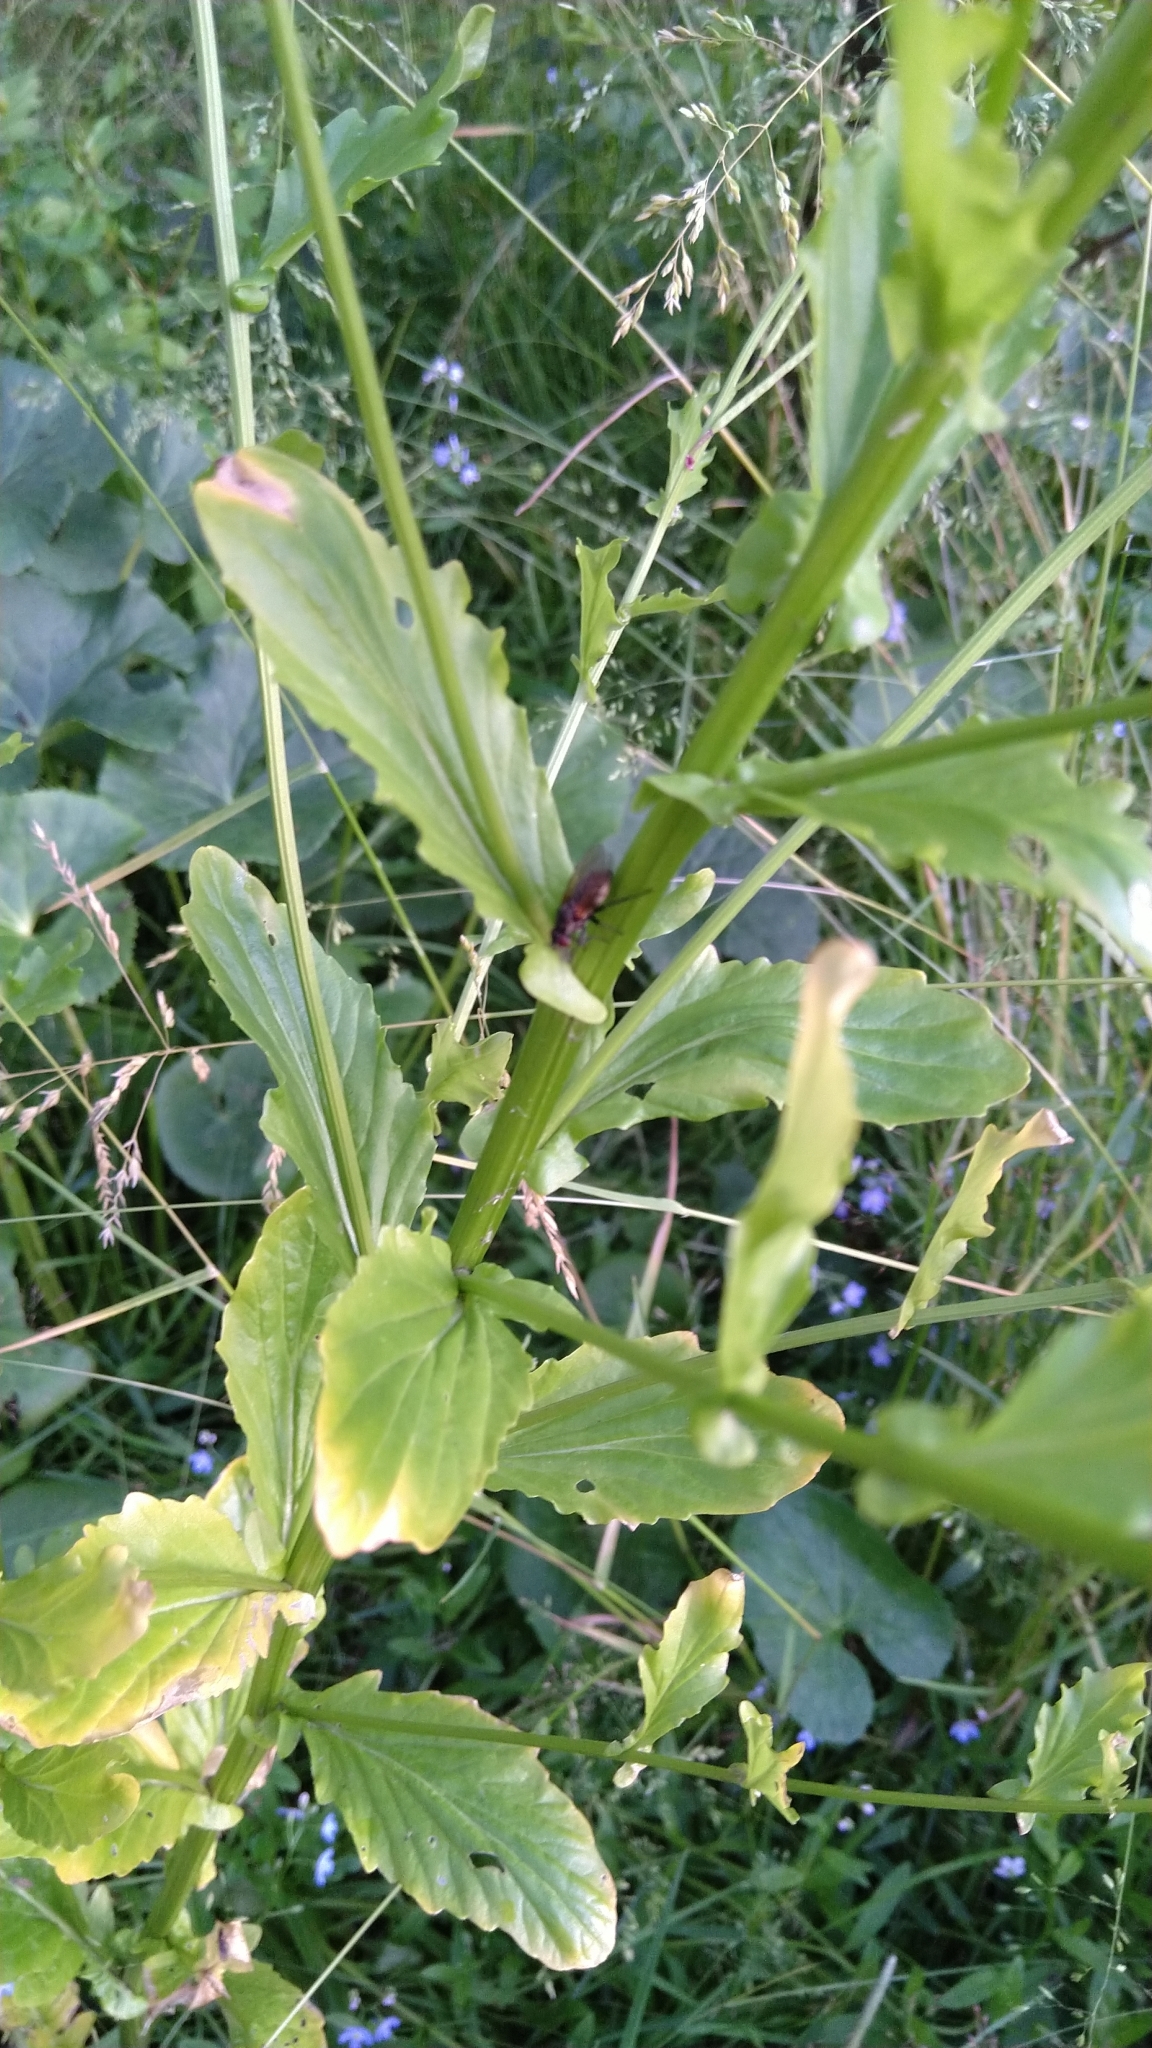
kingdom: Plantae
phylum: Tracheophyta
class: Magnoliopsida
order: Brassicales
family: Brassicaceae
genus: Barbarea
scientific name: Barbarea stricta
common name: Small-flowered winter-cress
